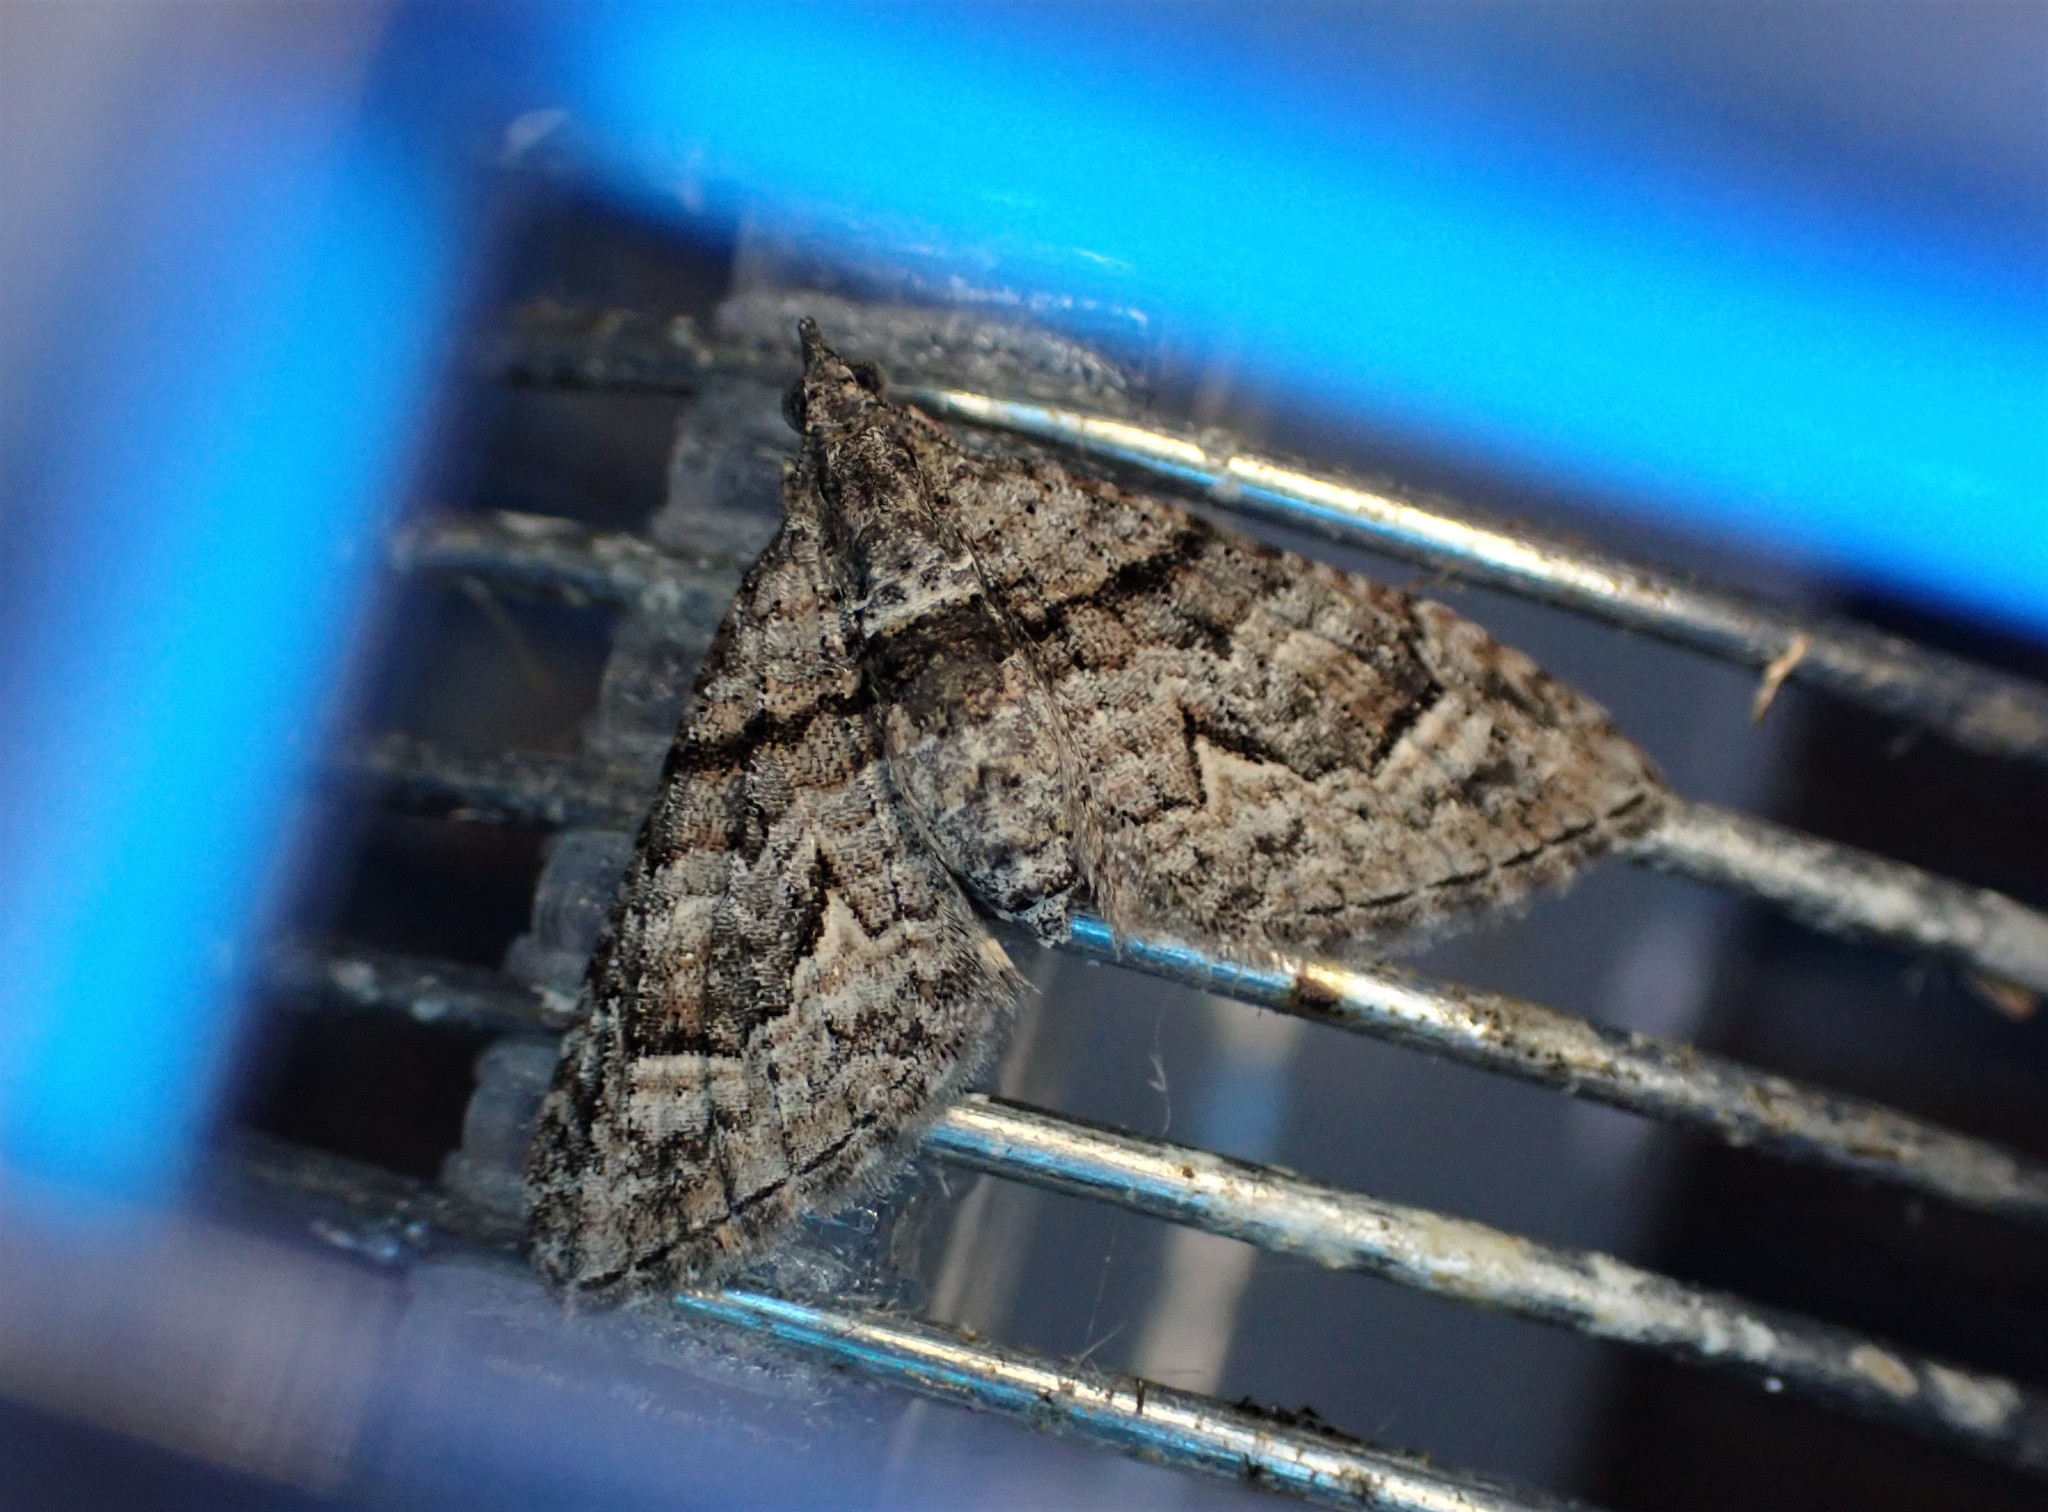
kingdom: Animalia
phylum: Arthropoda
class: Insecta
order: Lepidoptera
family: Geometridae
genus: Phrissogonus
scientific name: Phrissogonus laticostata
